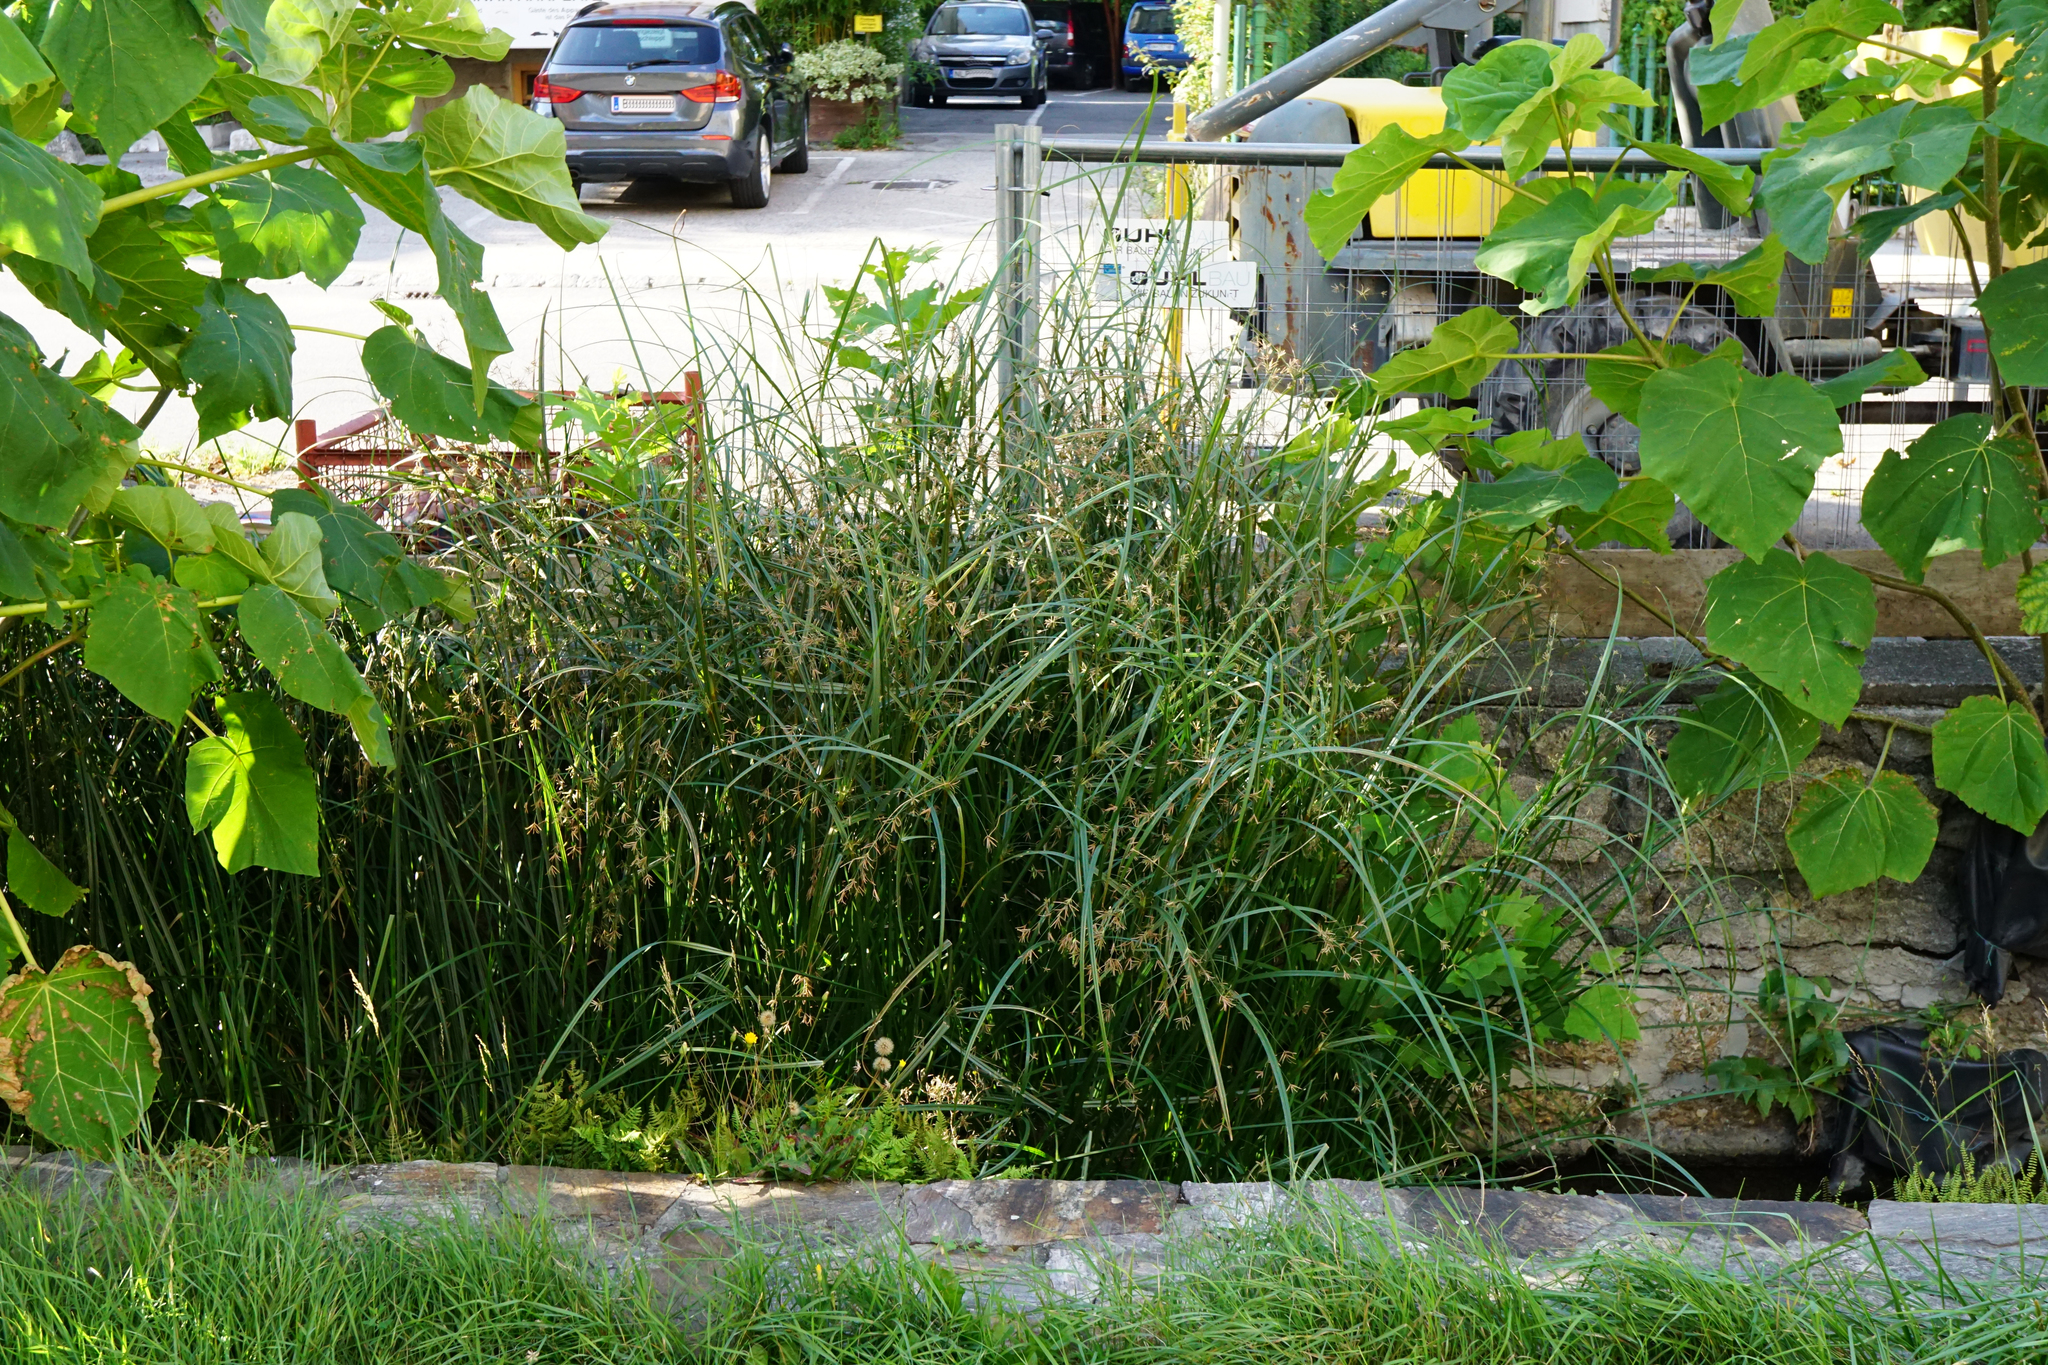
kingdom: Plantae
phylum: Tracheophyta
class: Liliopsida
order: Poales
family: Cyperaceae
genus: Cyperus
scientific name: Cyperus longus
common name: Galingale
